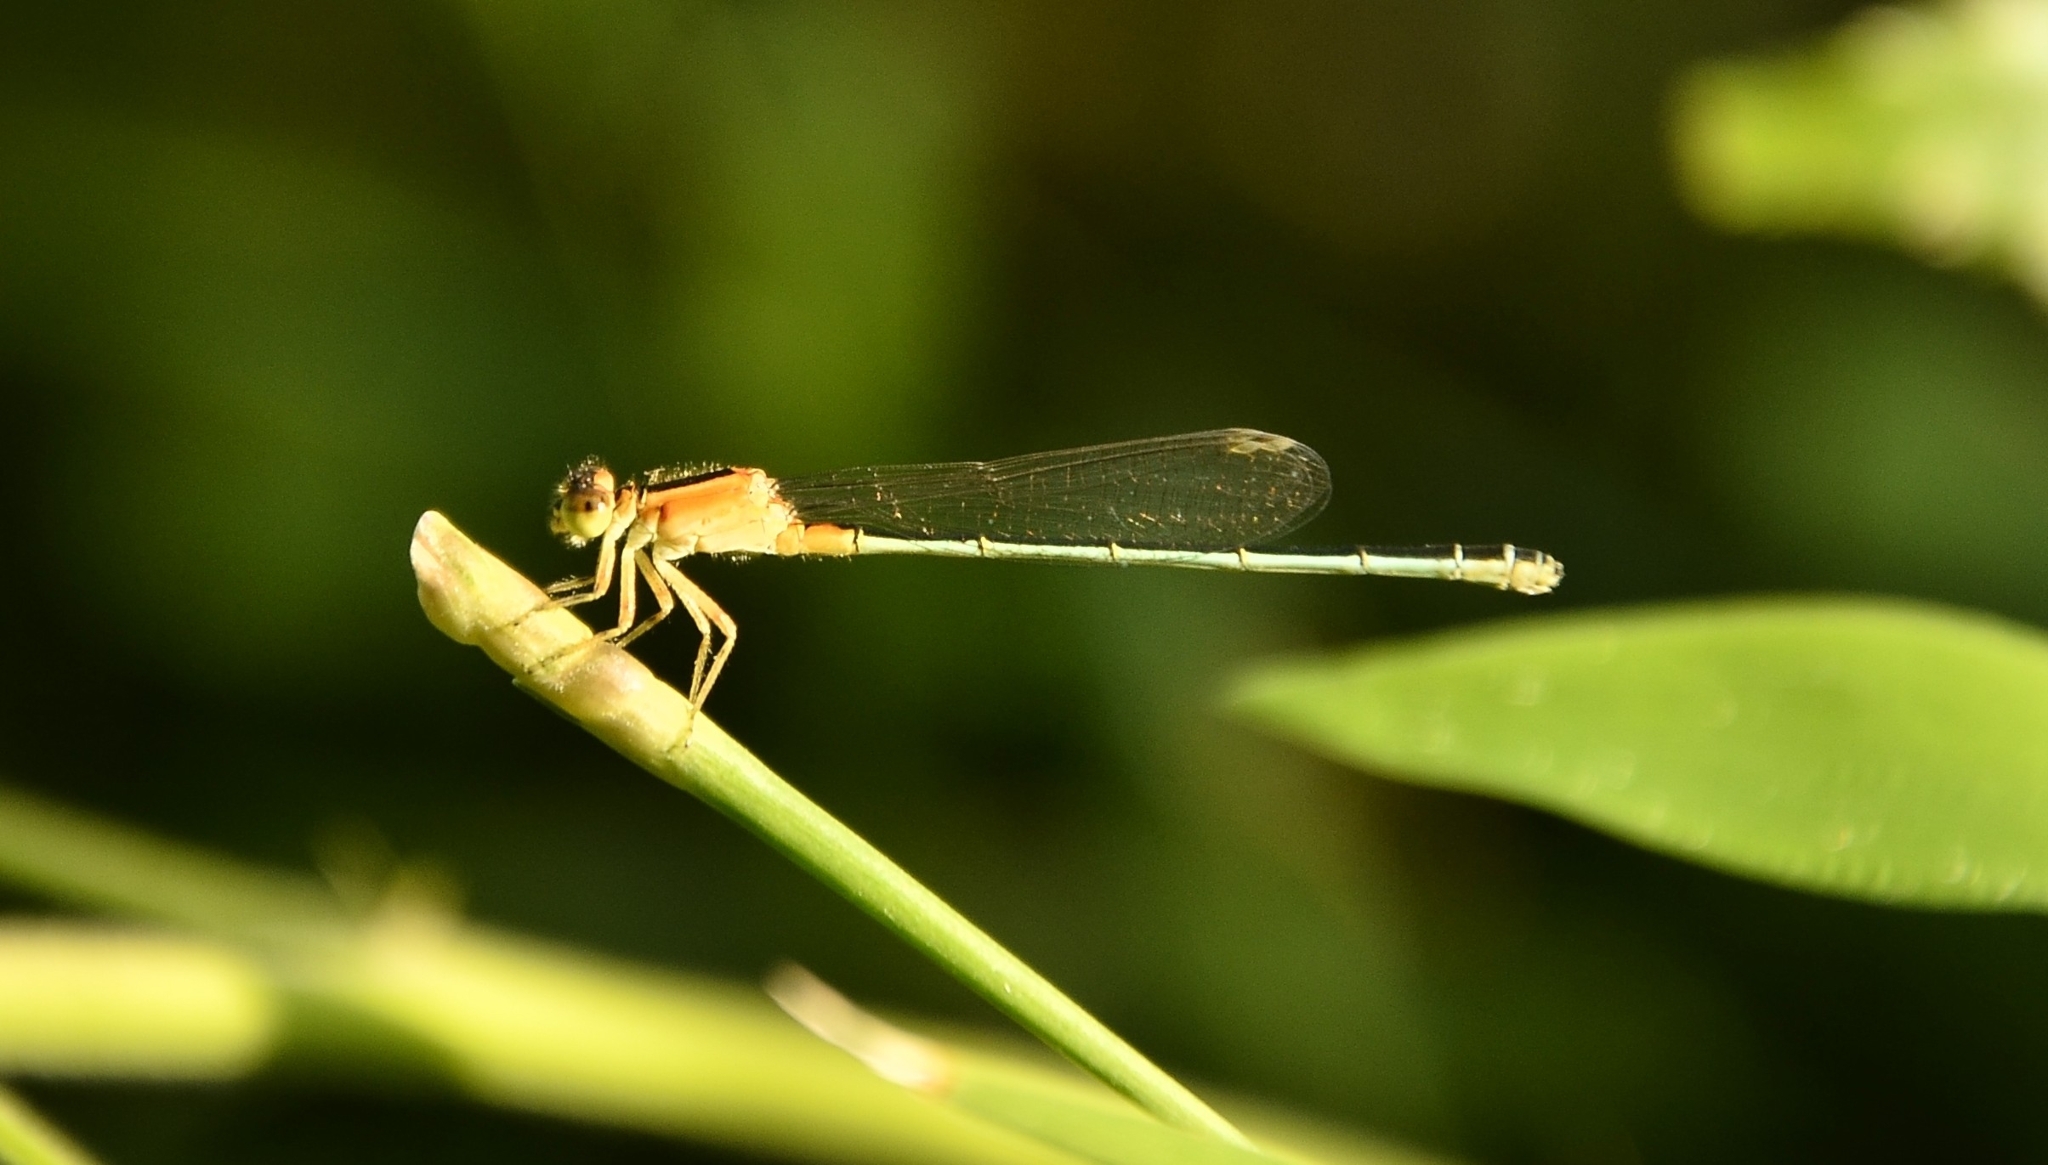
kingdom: Animalia
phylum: Arthropoda
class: Insecta
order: Odonata
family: Coenagrionidae
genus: Ischnura
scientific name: Ischnura senegalensis
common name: Tropical bluetail
